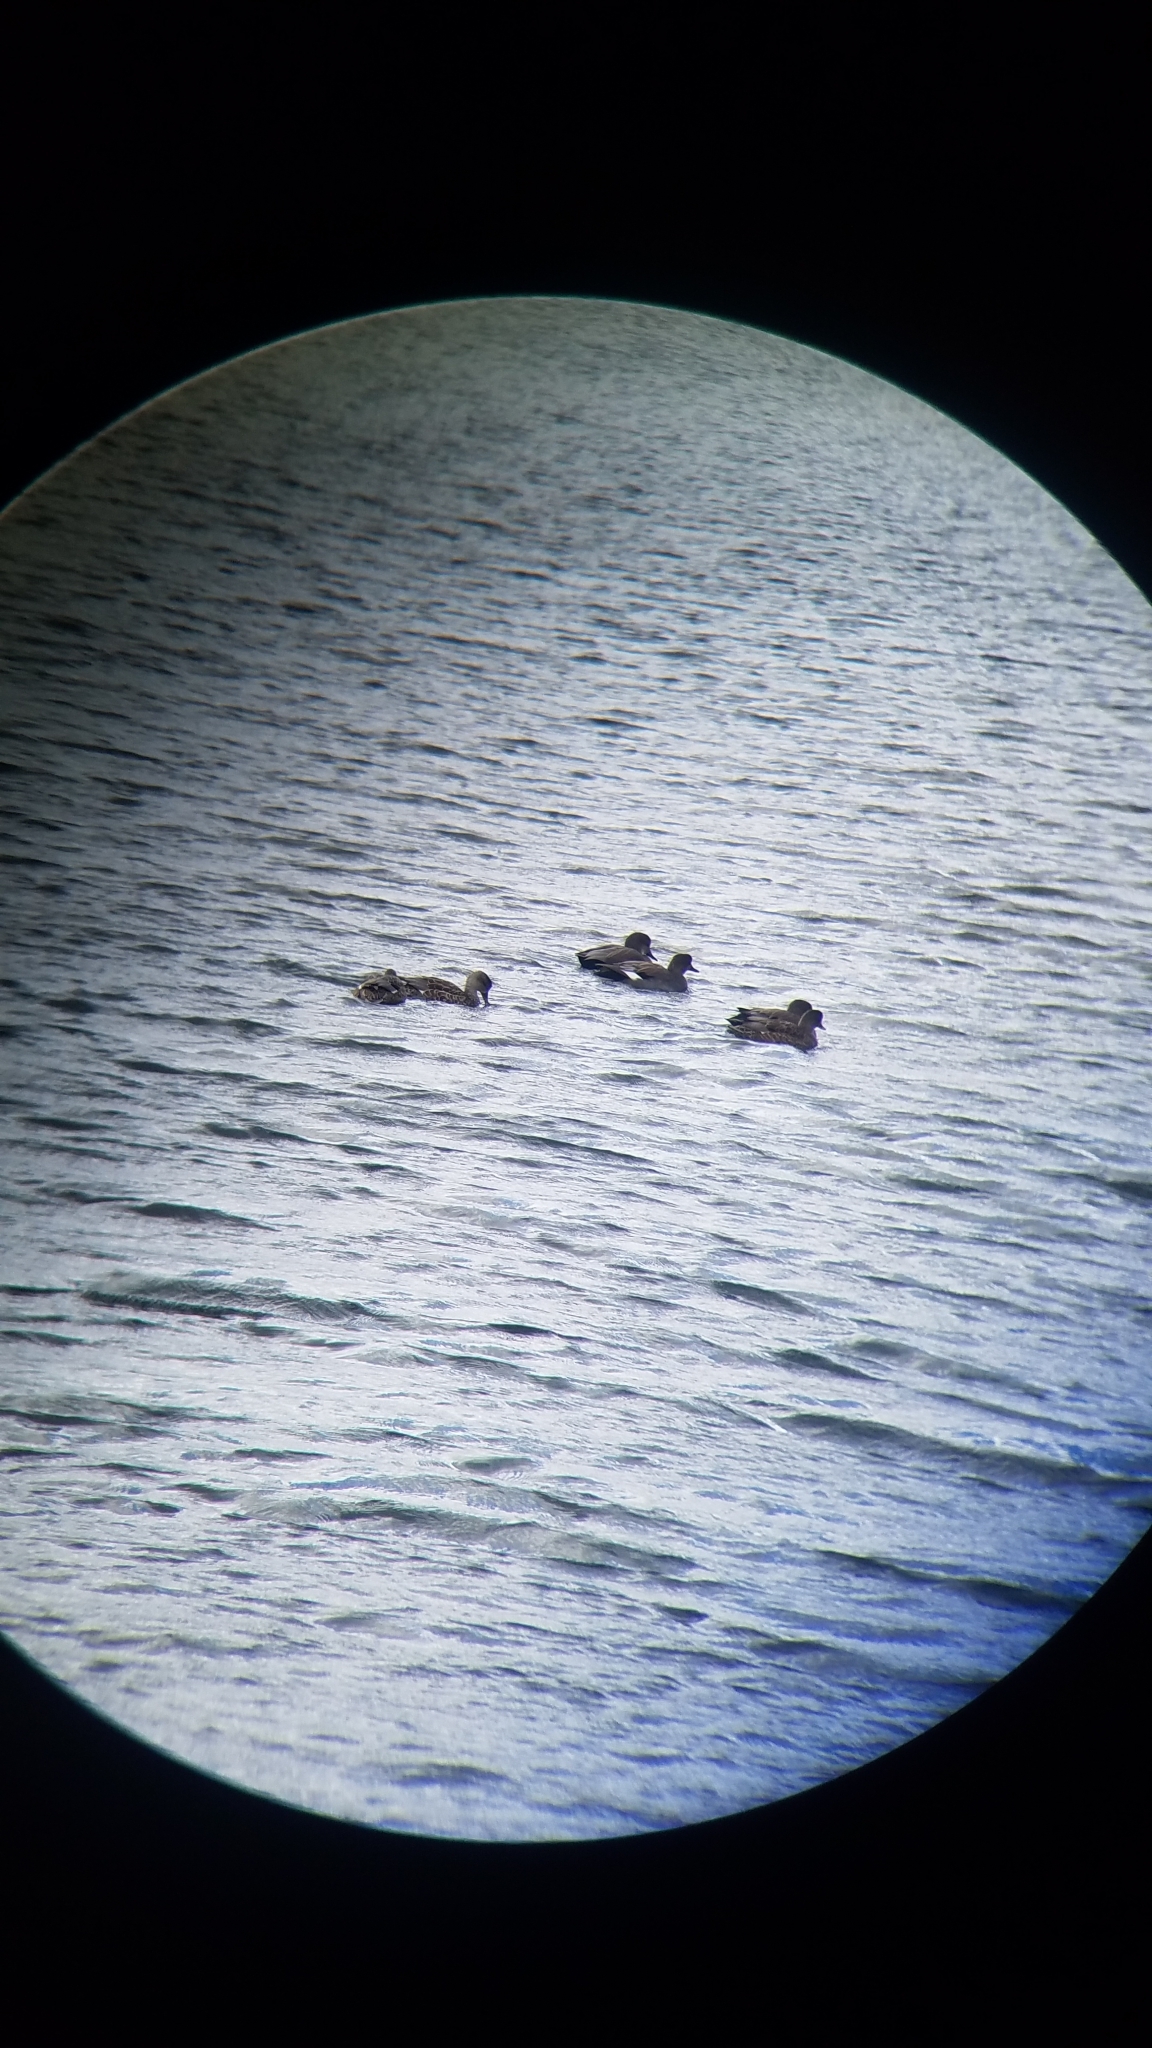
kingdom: Animalia
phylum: Chordata
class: Aves
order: Anseriformes
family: Anatidae
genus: Mareca
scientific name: Mareca strepera
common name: Gadwall
